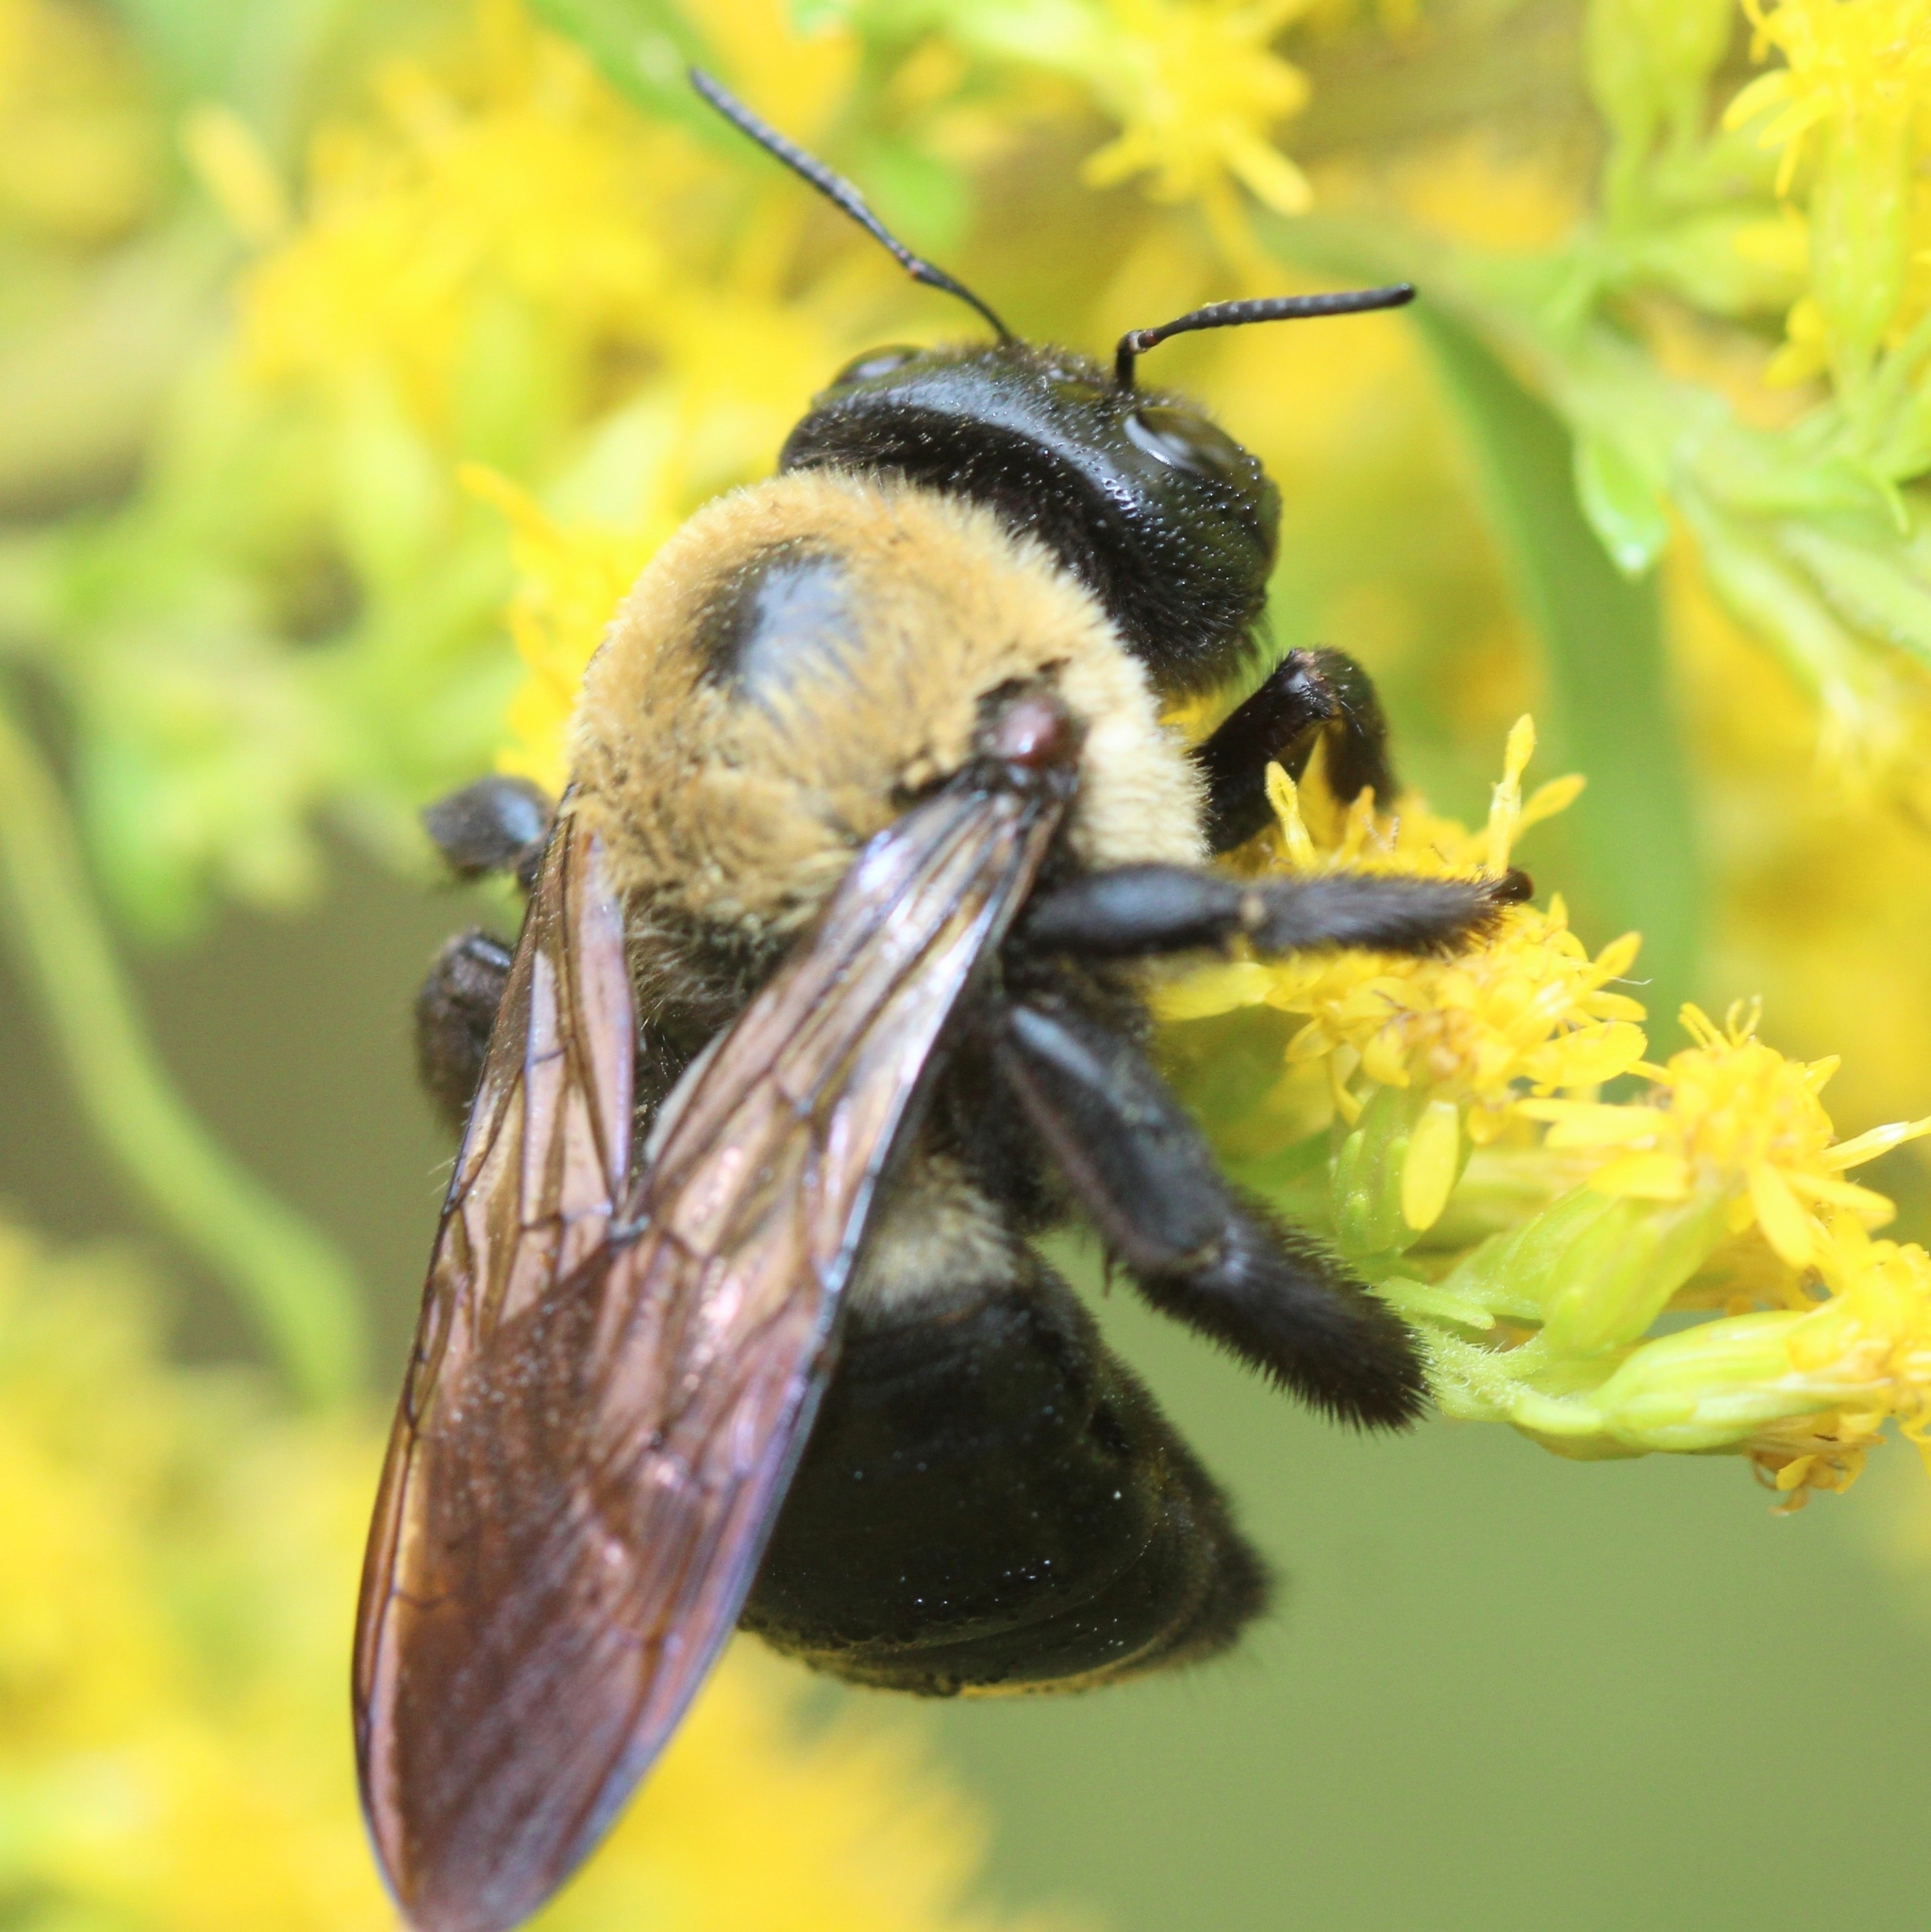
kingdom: Animalia
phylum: Arthropoda
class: Insecta
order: Hymenoptera
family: Apidae
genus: Xylocopa
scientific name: Xylocopa virginica
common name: Carpenter bee
